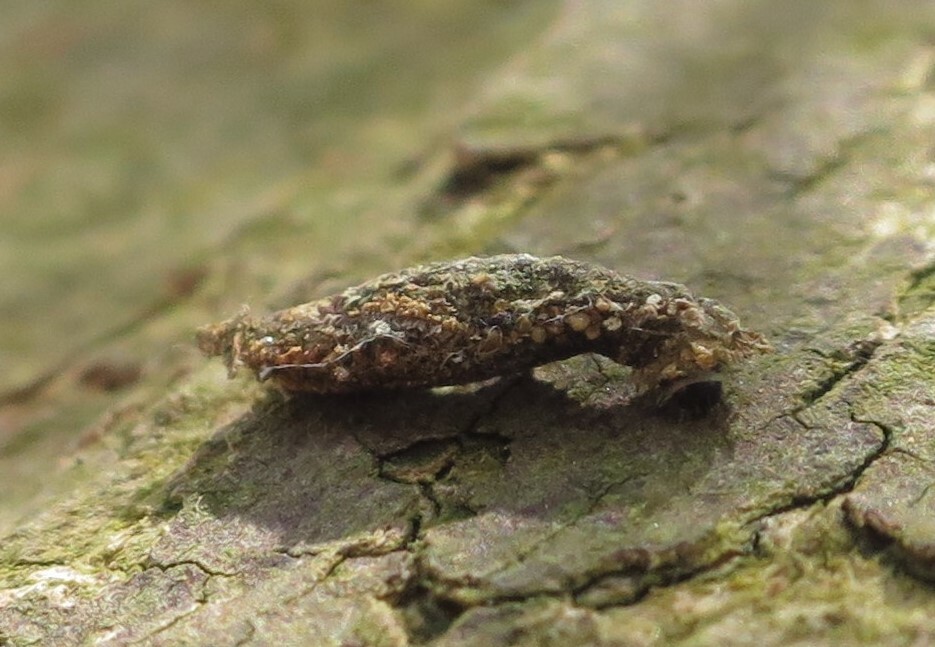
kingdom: Animalia
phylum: Arthropoda
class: Insecta
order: Lepidoptera
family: Psychidae
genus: Liothula
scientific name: Liothula omnivora
